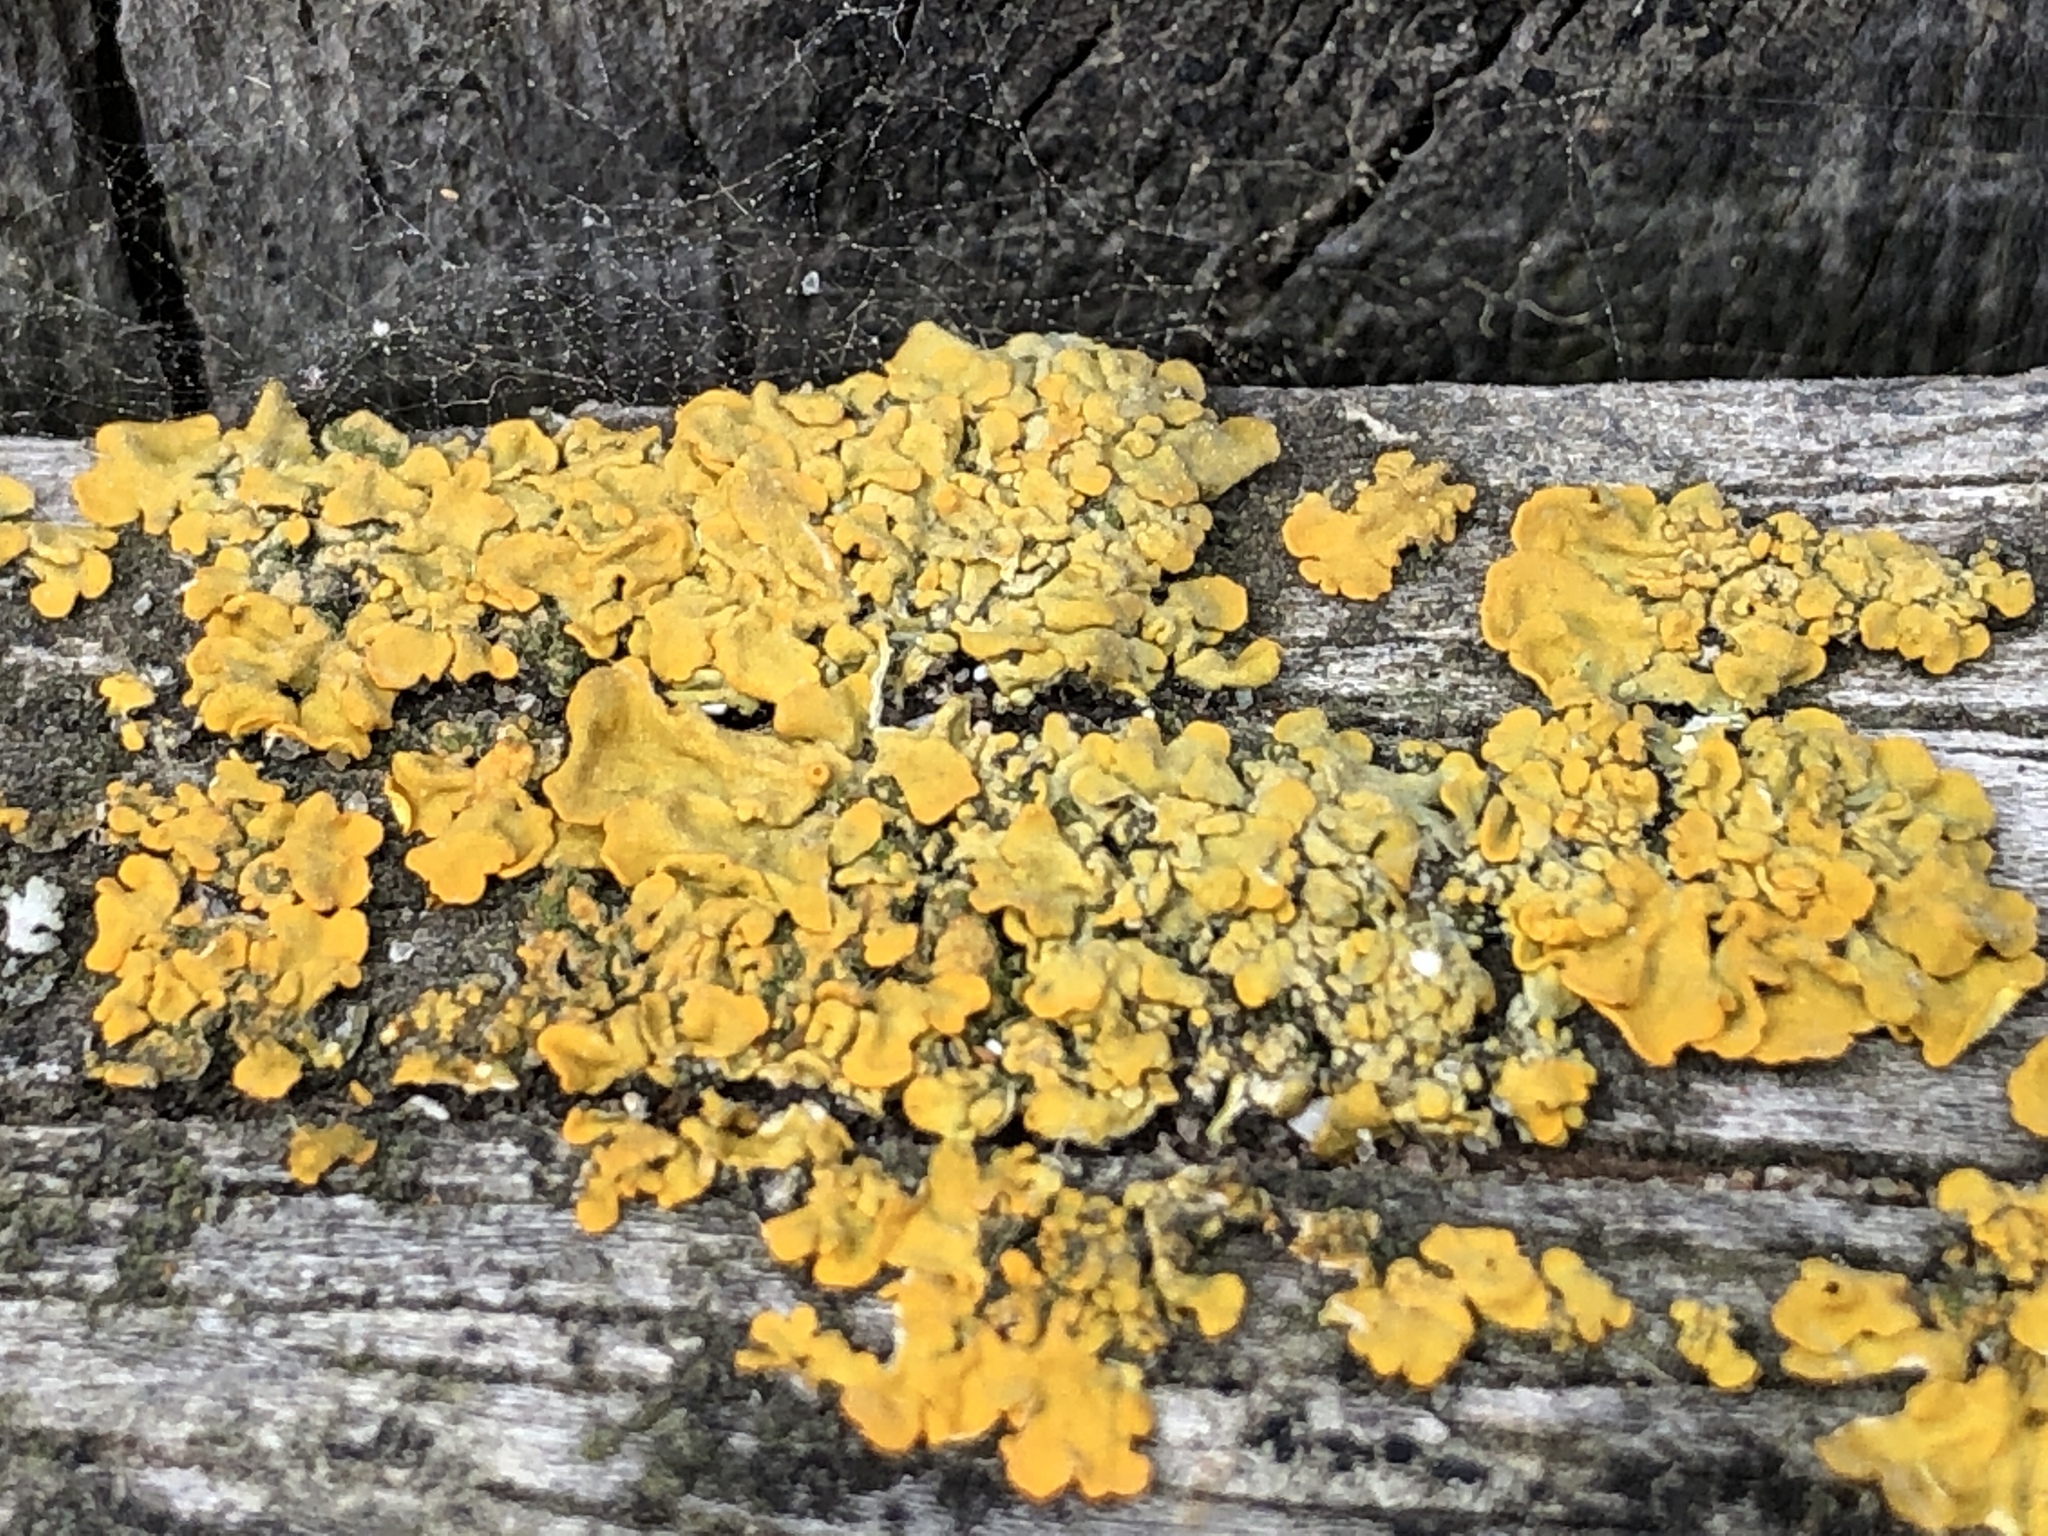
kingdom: Fungi
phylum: Ascomycota
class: Lecanoromycetes
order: Teloschistales
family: Teloschistaceae
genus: Xanthoria
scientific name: Xanthoria parietina
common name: Common orange lichen
